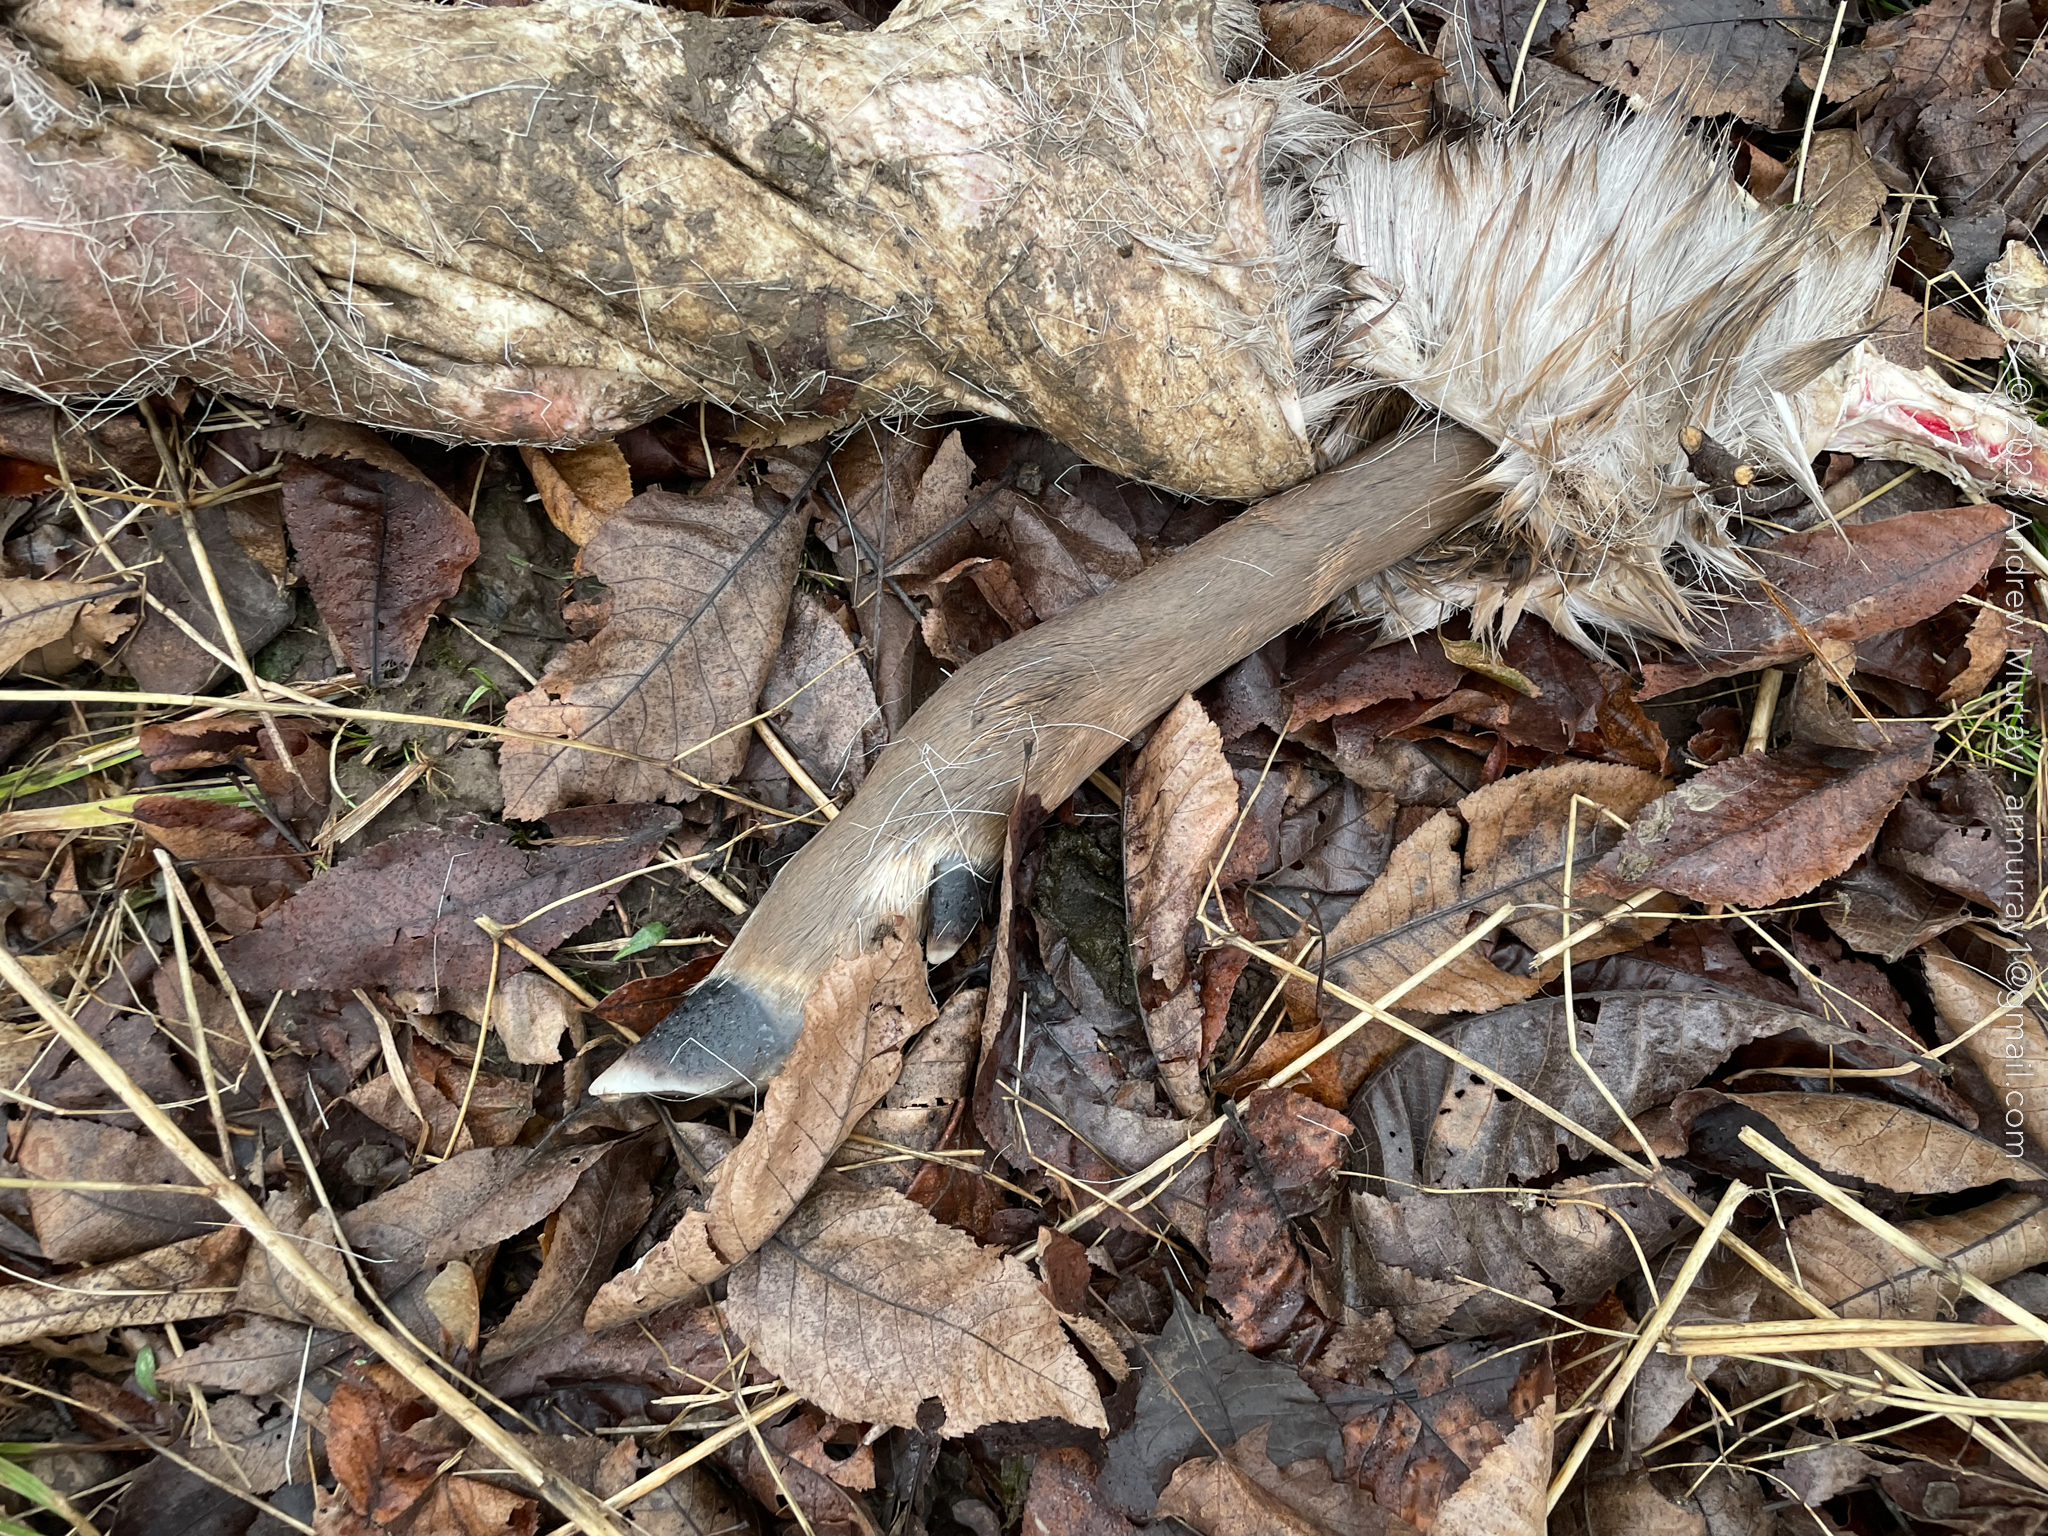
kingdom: Animalia
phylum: Chordata
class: Mammalia
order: Artiodactyla
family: Cervidae
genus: Odocoileus
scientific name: Odocoileus virginianus
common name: White-tailed deer
